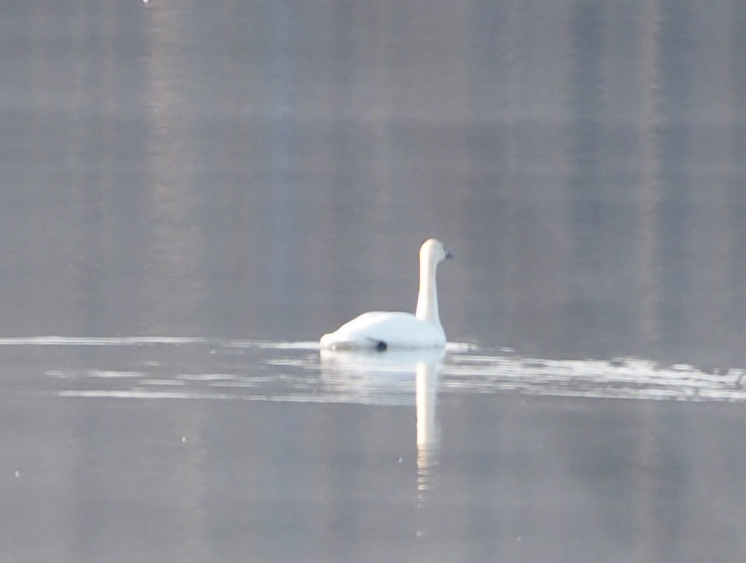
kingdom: Animalia
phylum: Chordata
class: Aves
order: Anseriformes
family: Anatidae
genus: Cygnus
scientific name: Cygnus columbianus
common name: Tundra swan
